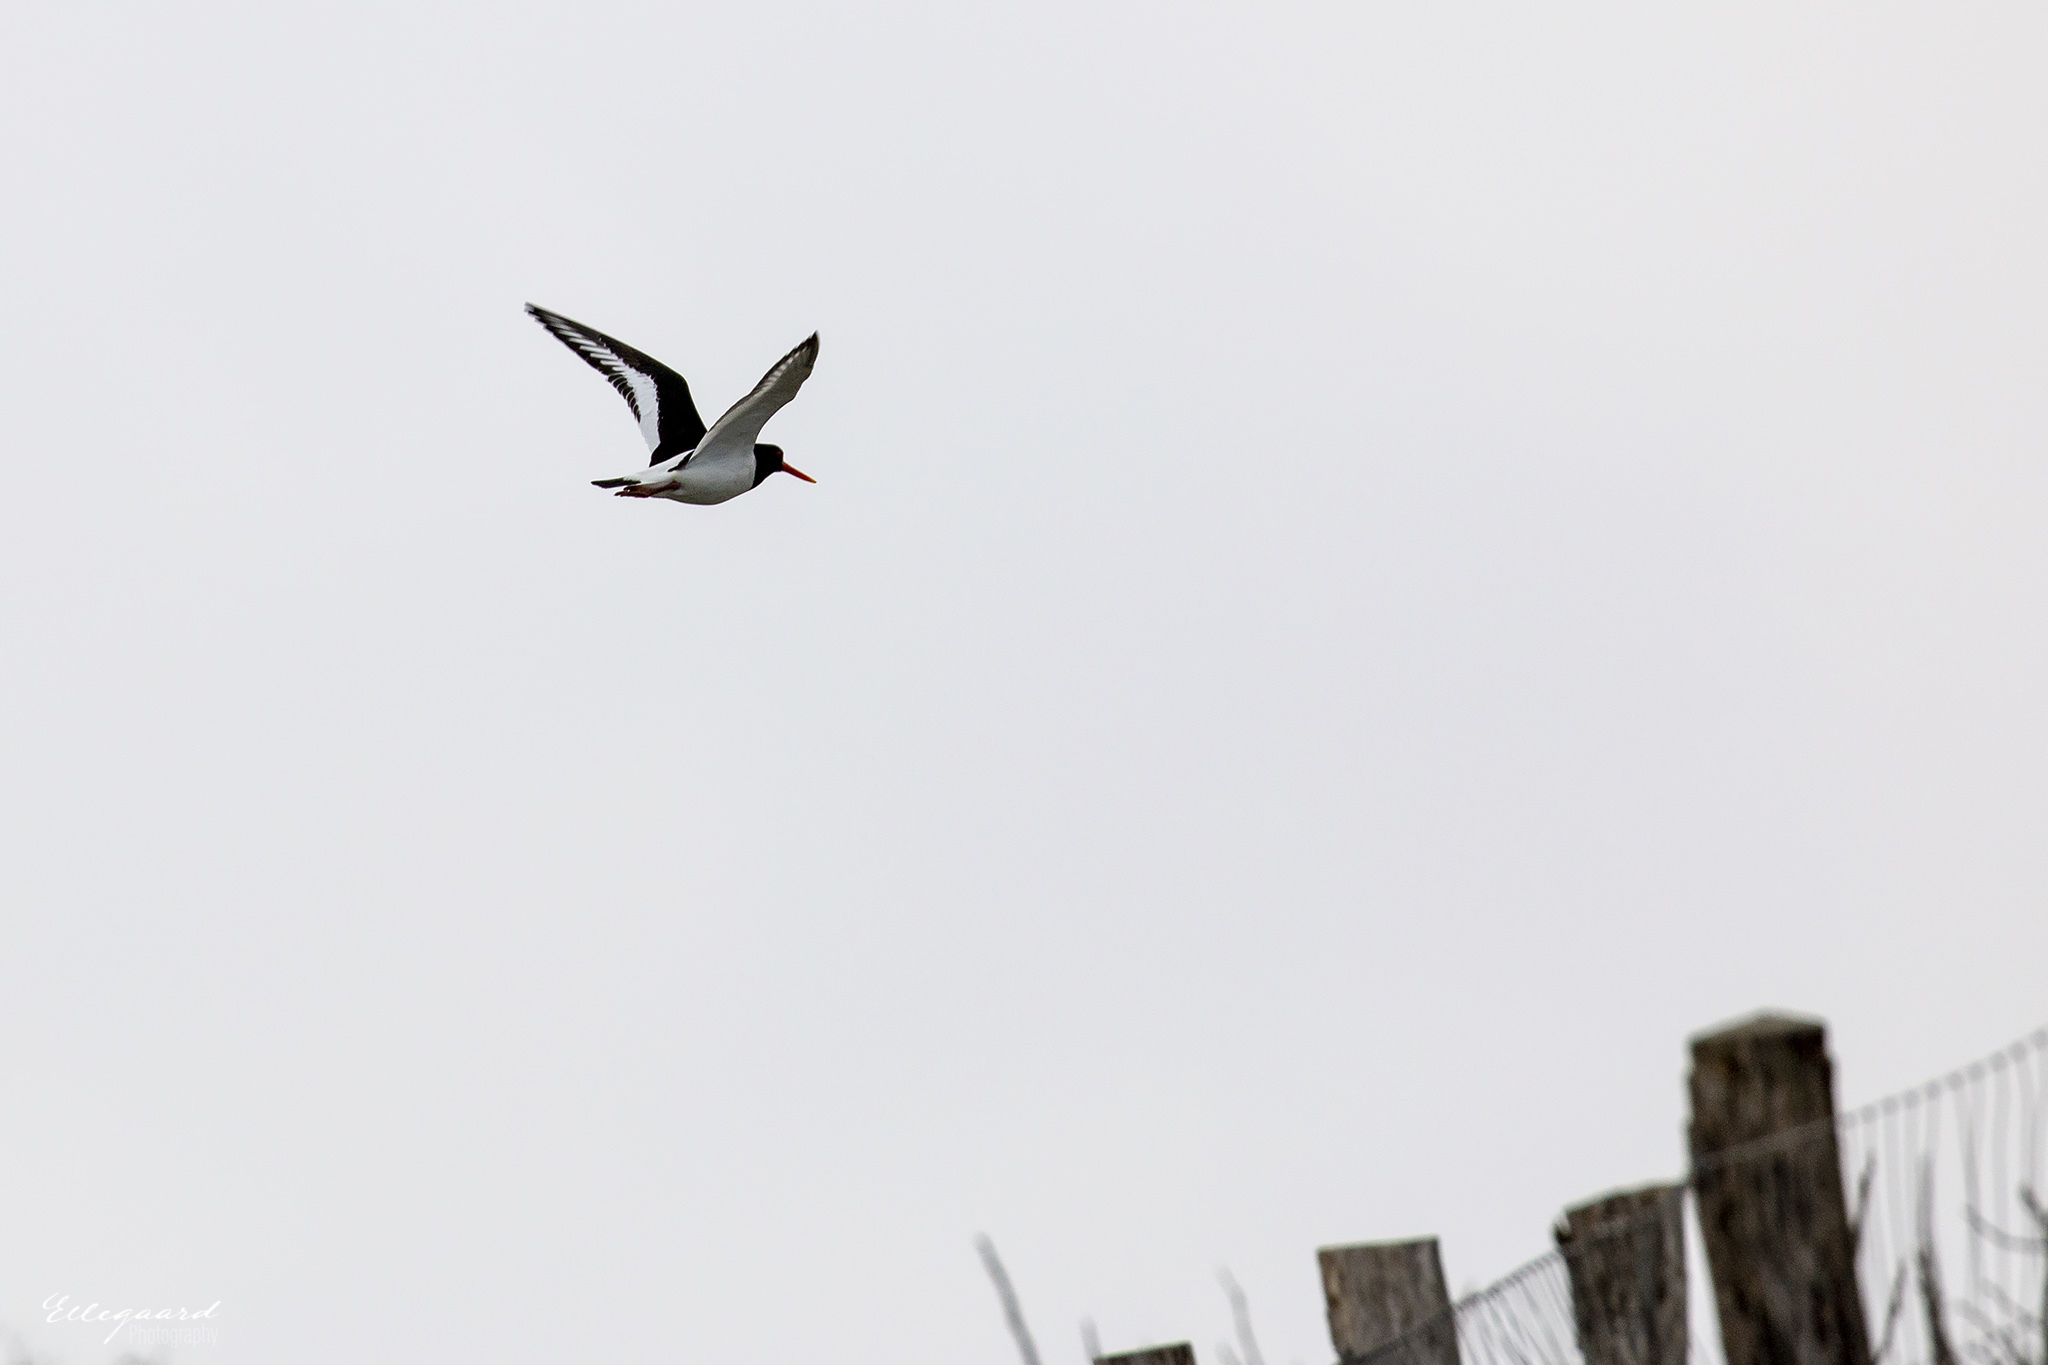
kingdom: Animalia
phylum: Chordata
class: Aves
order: Charadriiformes
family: Haematopodidae
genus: Haematopus
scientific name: Haematopus ostralegus
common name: Eurasian oystercatcher
